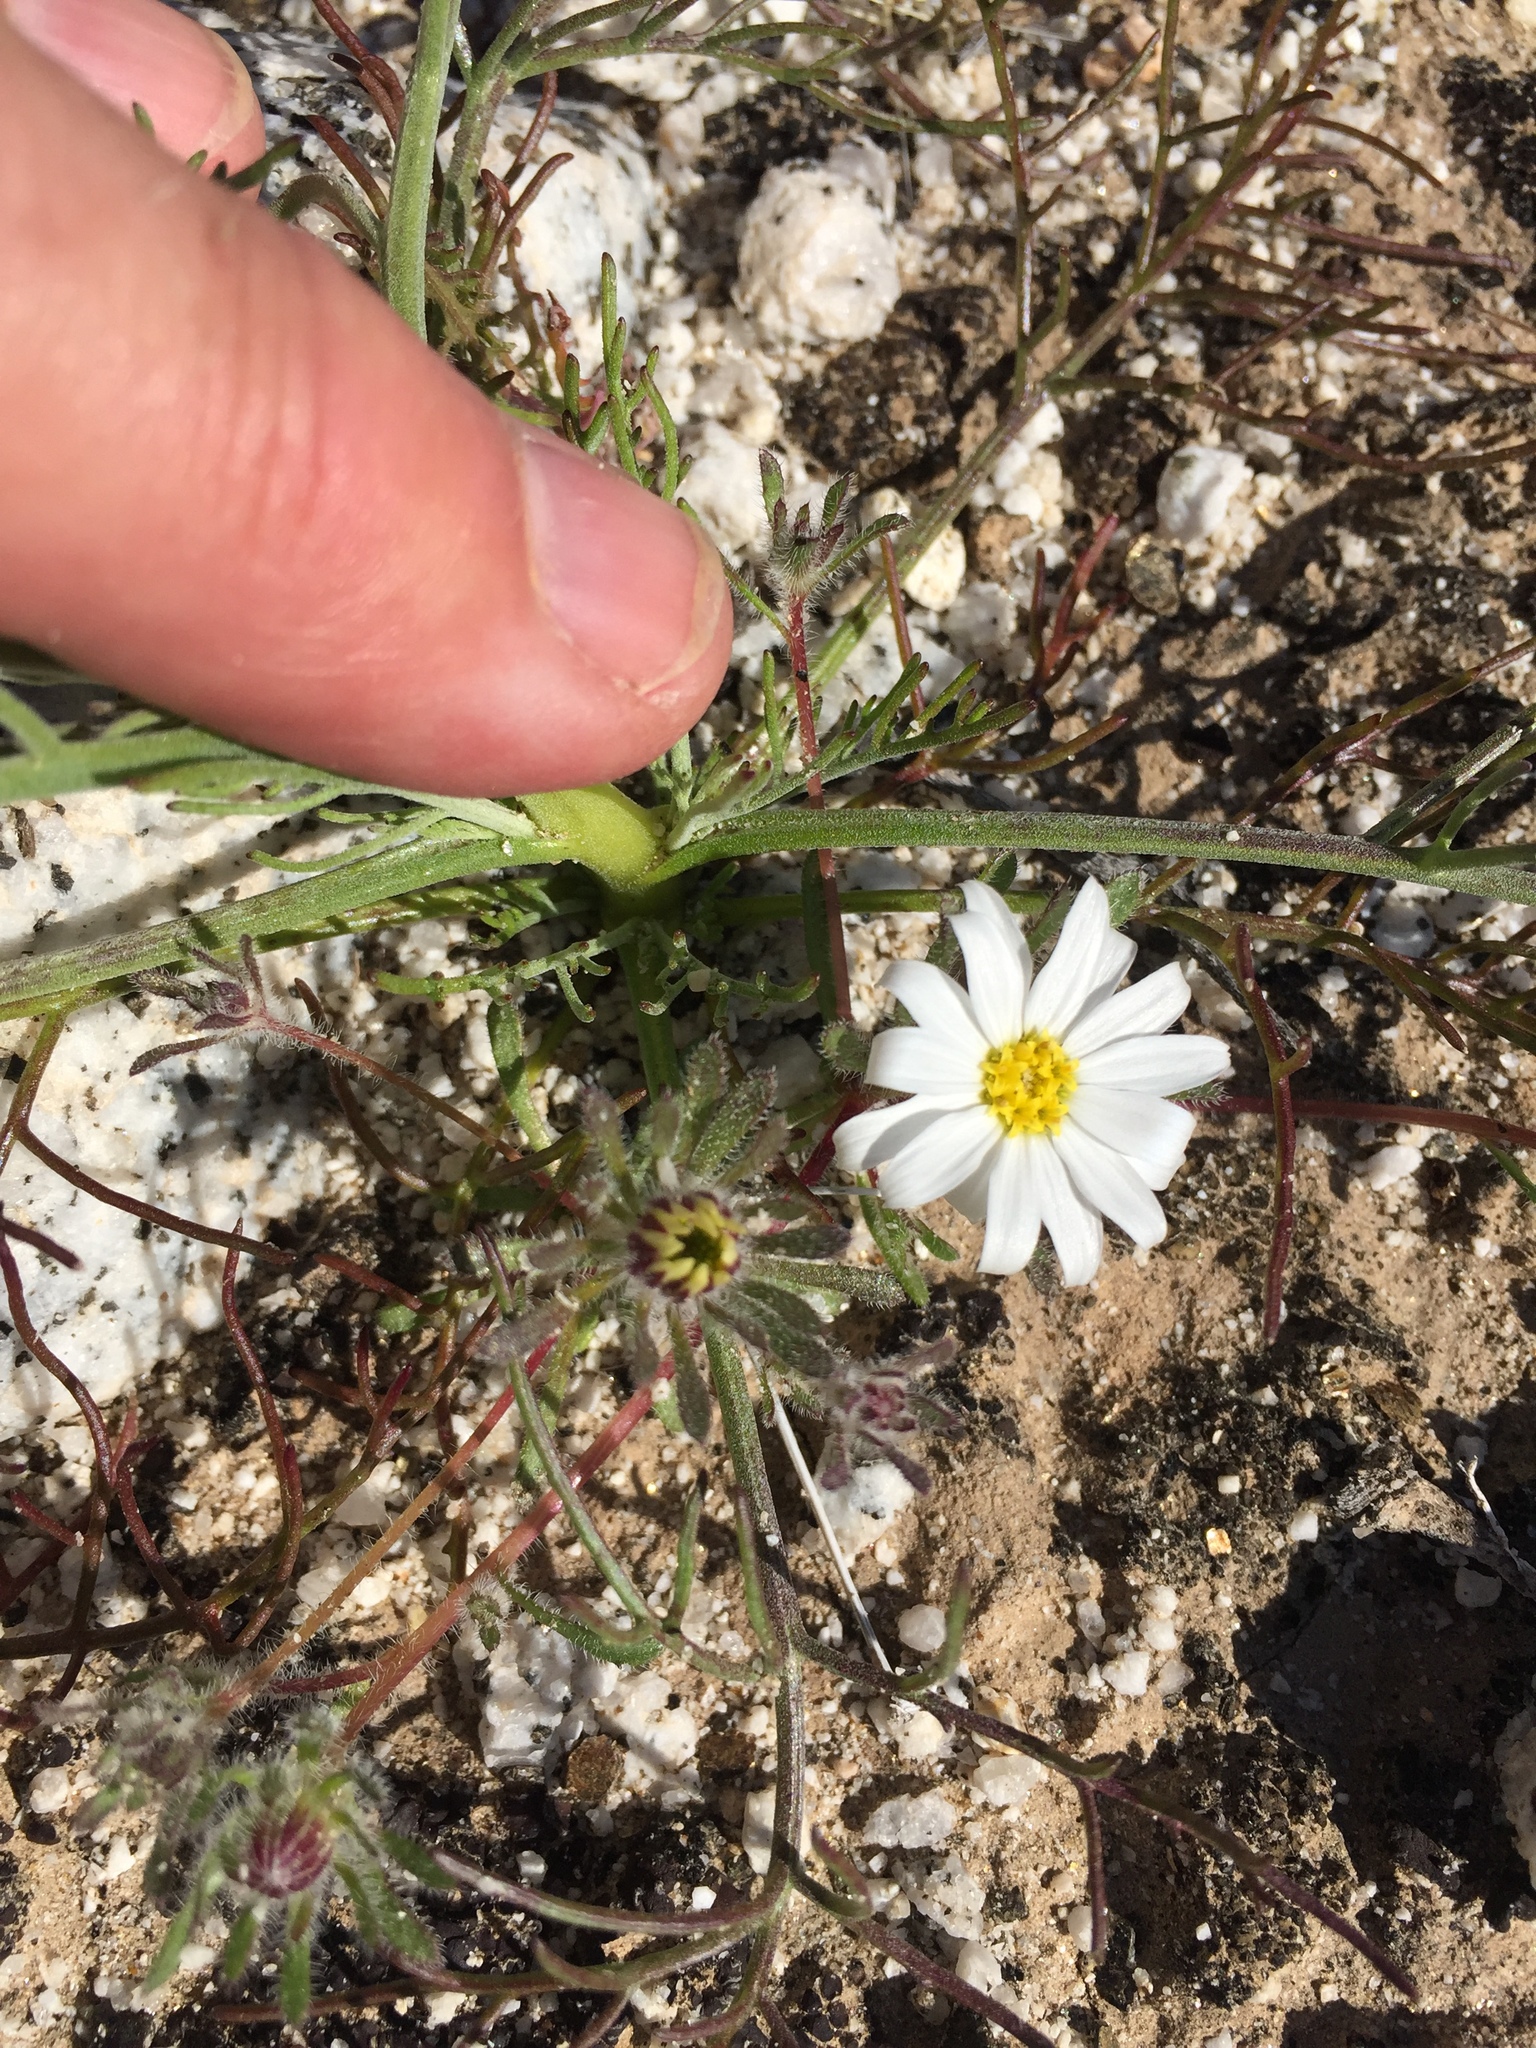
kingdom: Plantae
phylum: Tracheophyta
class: Magnoliopsida
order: Asterales
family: Asteraceae
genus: Monoptilon
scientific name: Monoptilon bellioides
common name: Bristly desertstar
